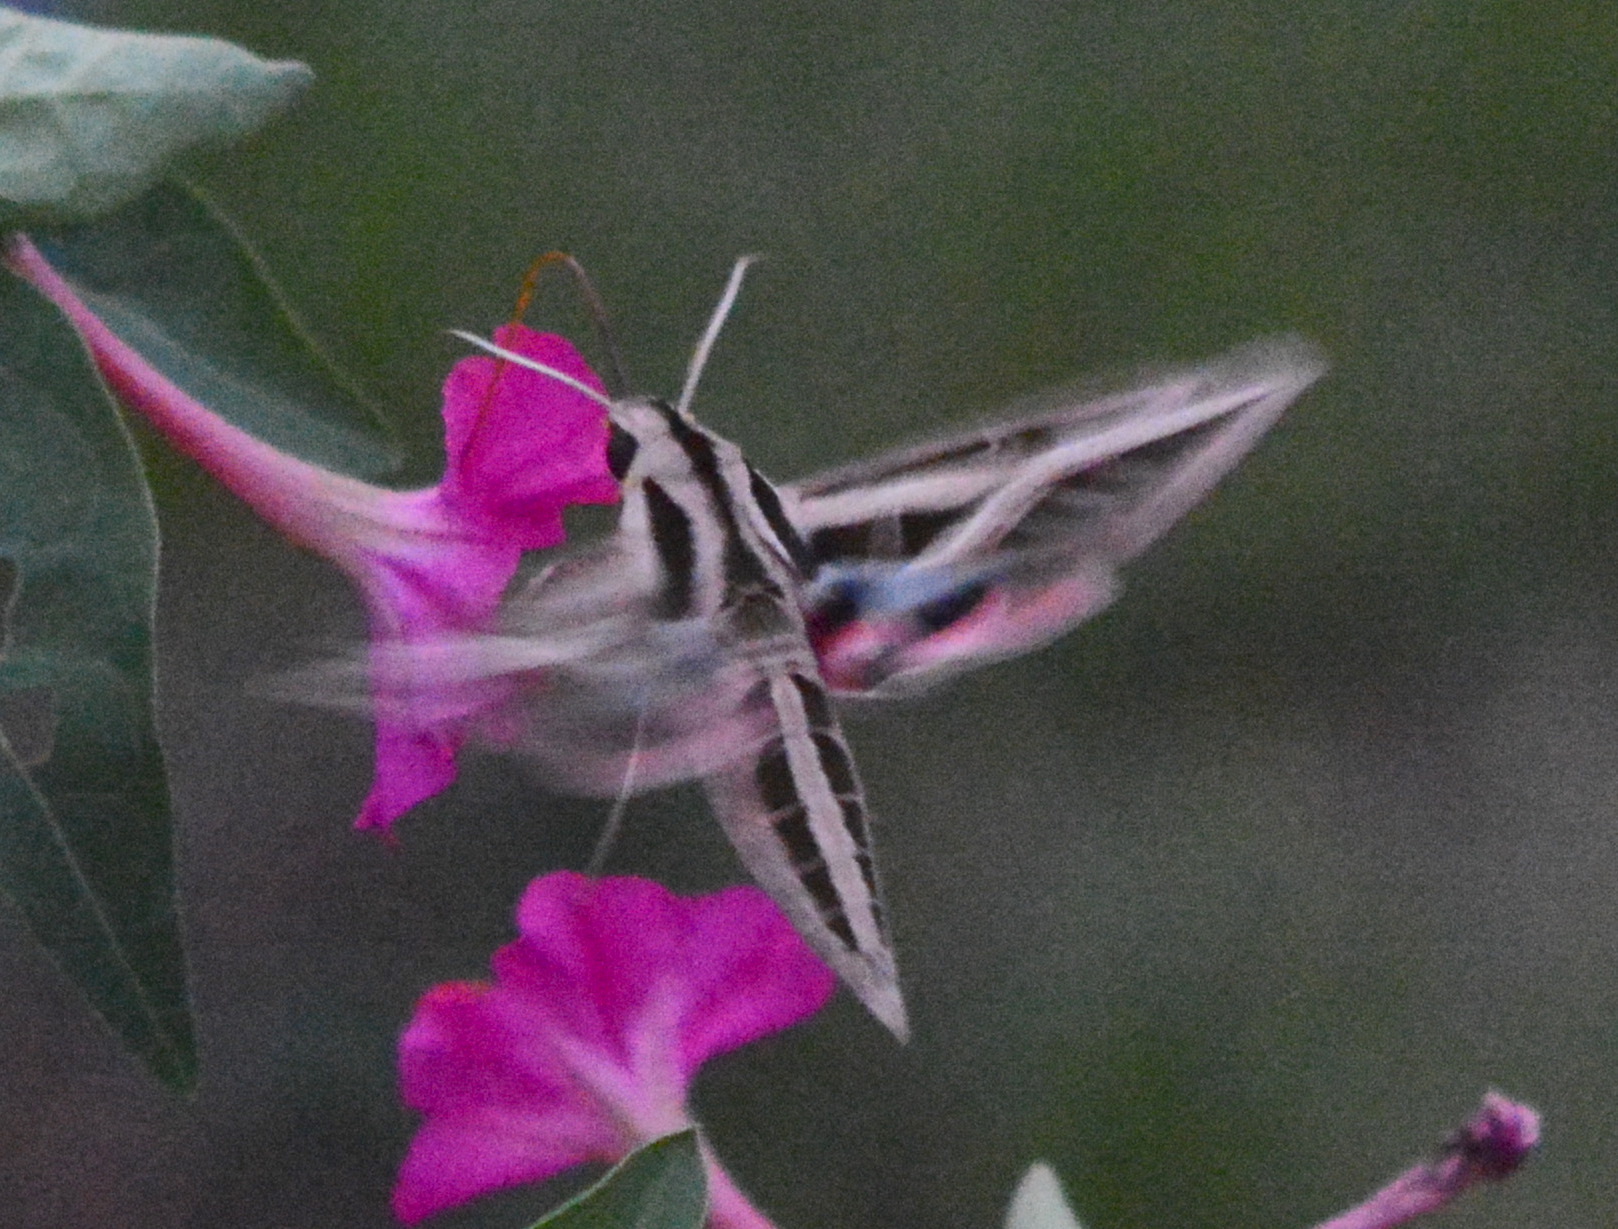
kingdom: Animalia
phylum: Arthropoda
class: Insecta
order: Lepidoptera
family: Sphingidae
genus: Eumorpha
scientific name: Eumorpha fasciatus
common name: Banded sphinx
